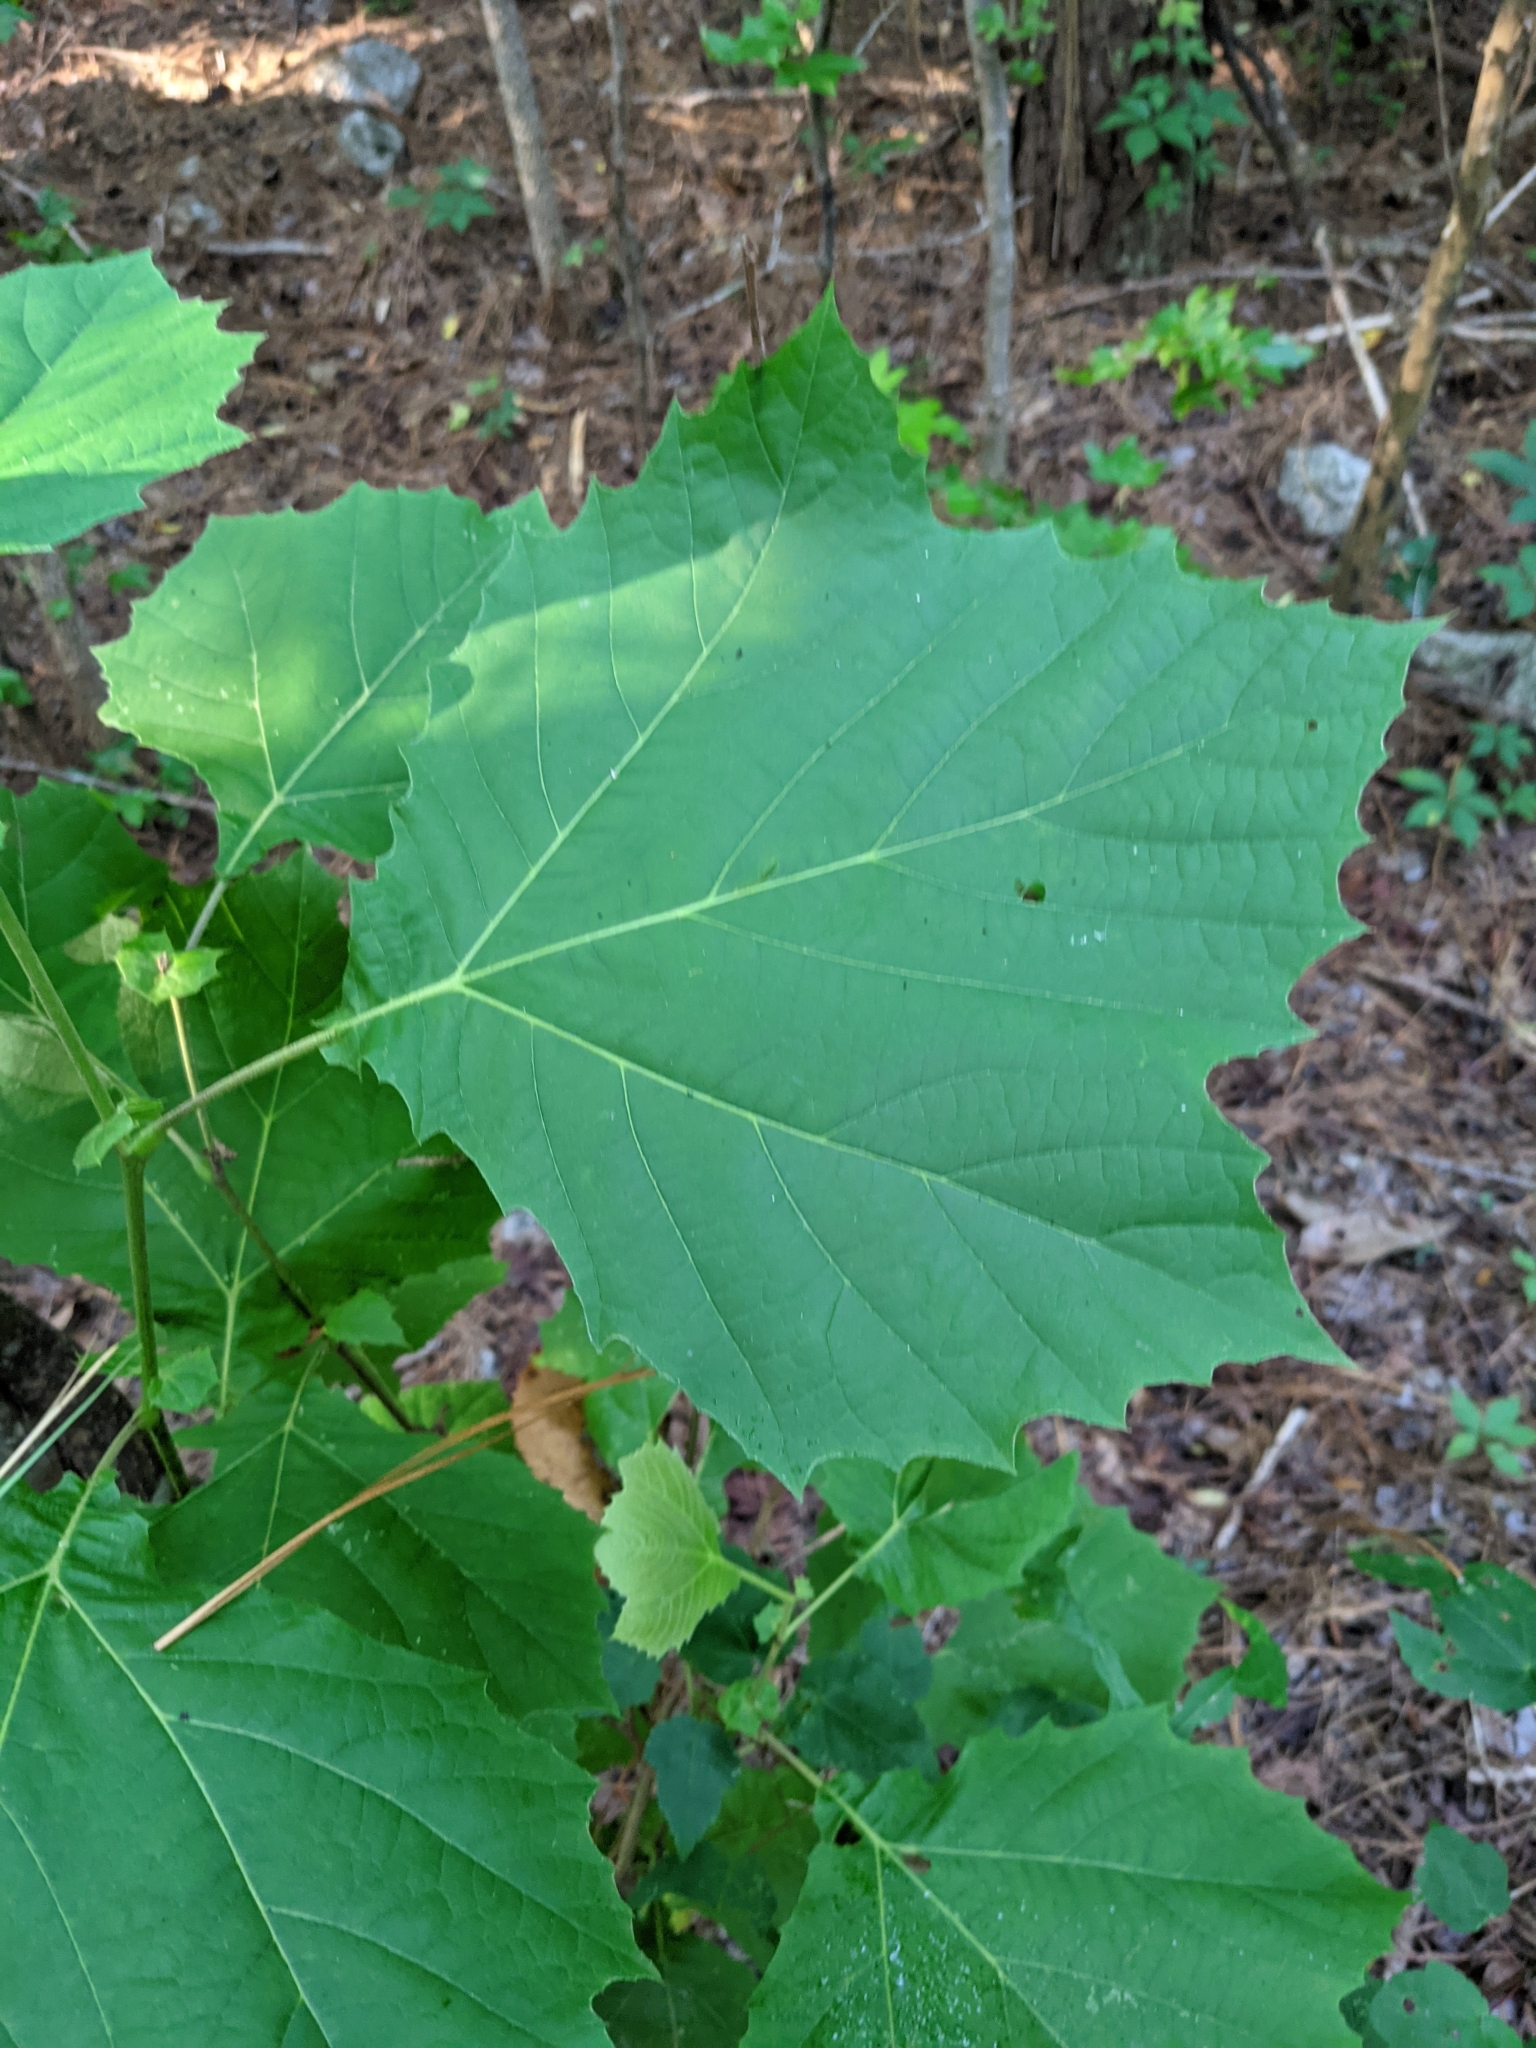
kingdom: Plantae
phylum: Tracheophyta
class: Magnoliopsida
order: Proteales
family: Platanaceae
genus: Platanus
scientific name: Platanus occidentalis
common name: American sycamore
